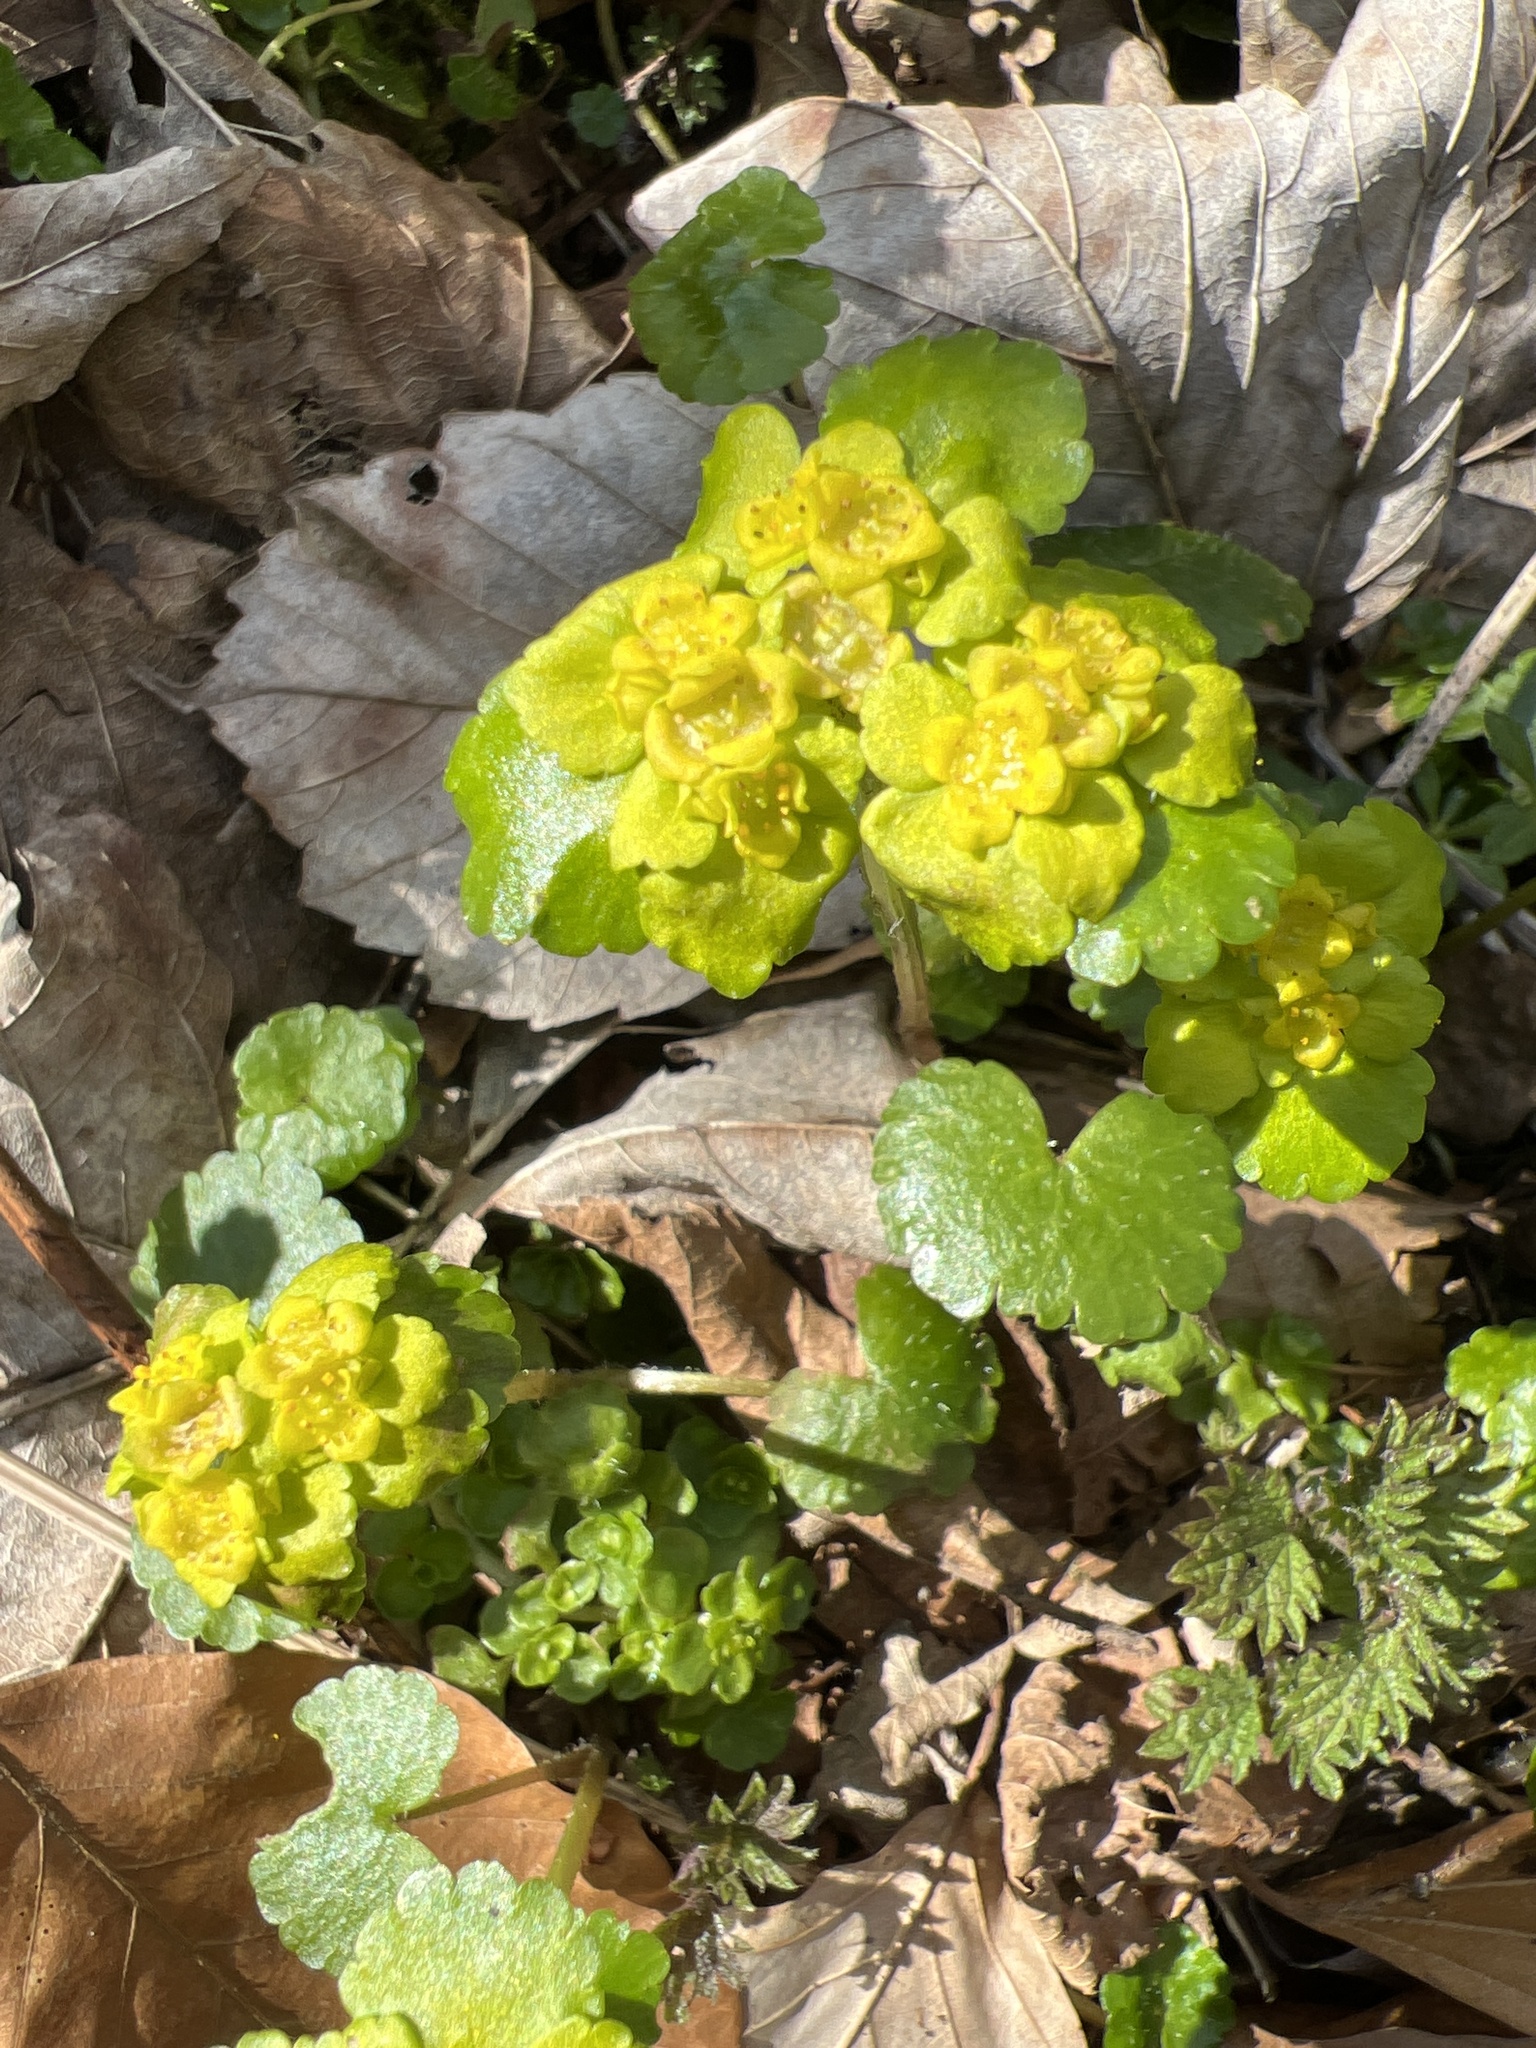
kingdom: Plantae
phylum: Tracheophyta
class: Magnoliopsida
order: Saxifragales
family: Saxifragaceae
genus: Chrysosplenium
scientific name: Chrysosplenium alternifolium
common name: Alternate-leaved golden-saxifrage
